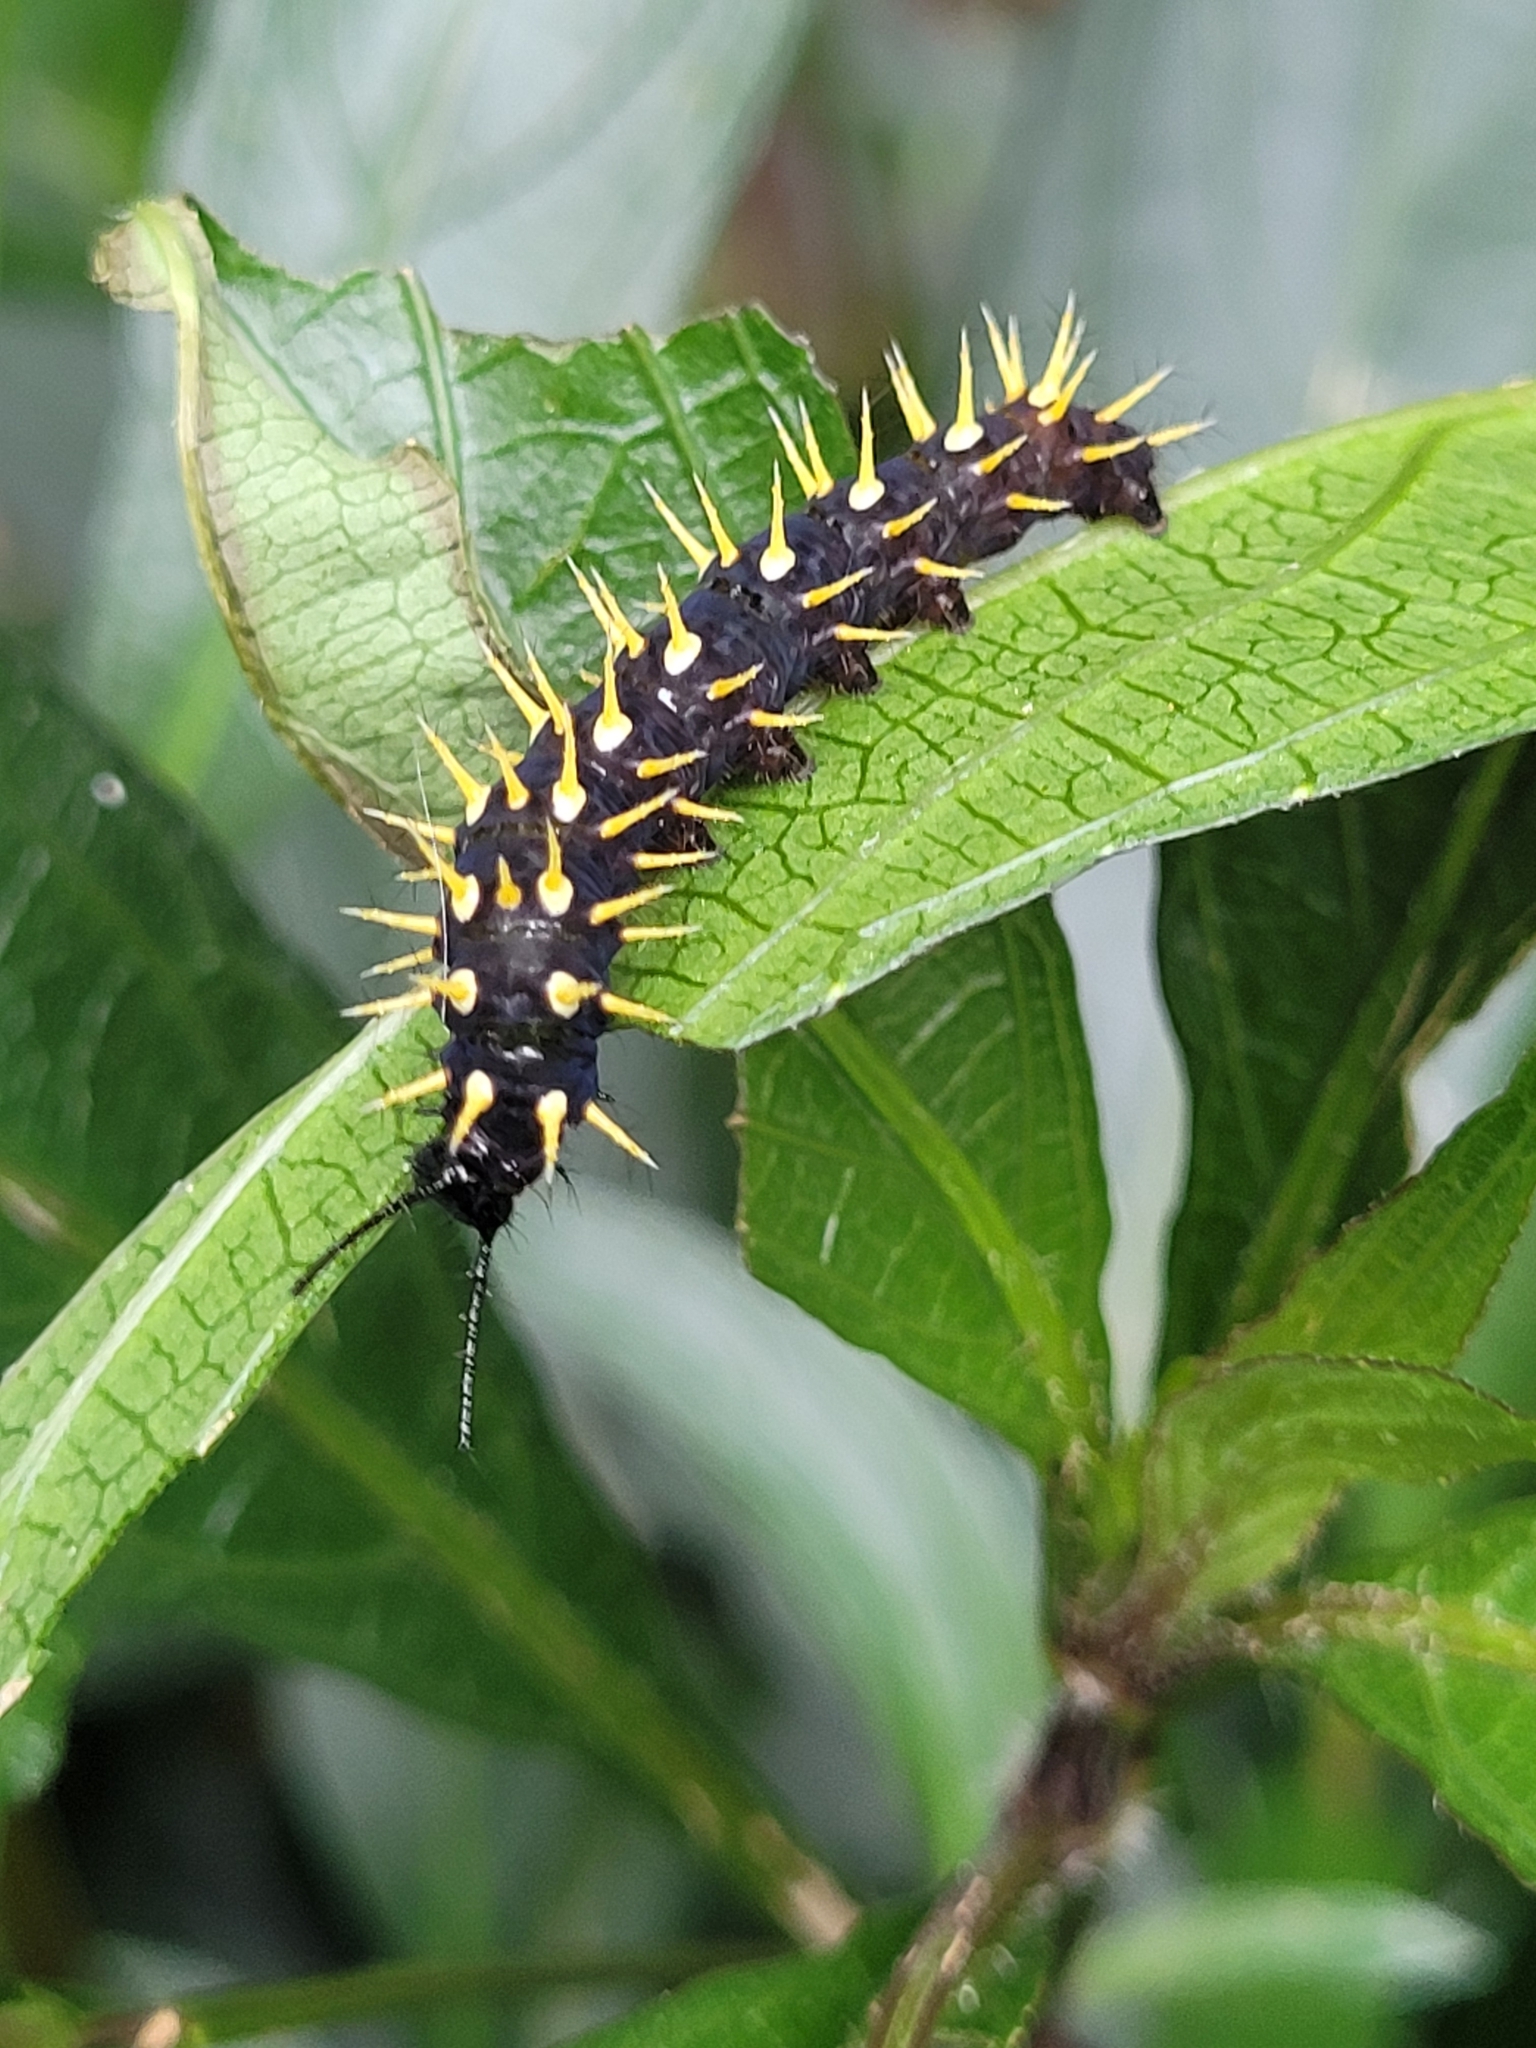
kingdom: Animalia
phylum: Arthropoda
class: Insecta
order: Lepidoptera
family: Nymphalidae
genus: Siproeta
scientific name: Siproeta epaphus
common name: Rusty-tipped page
